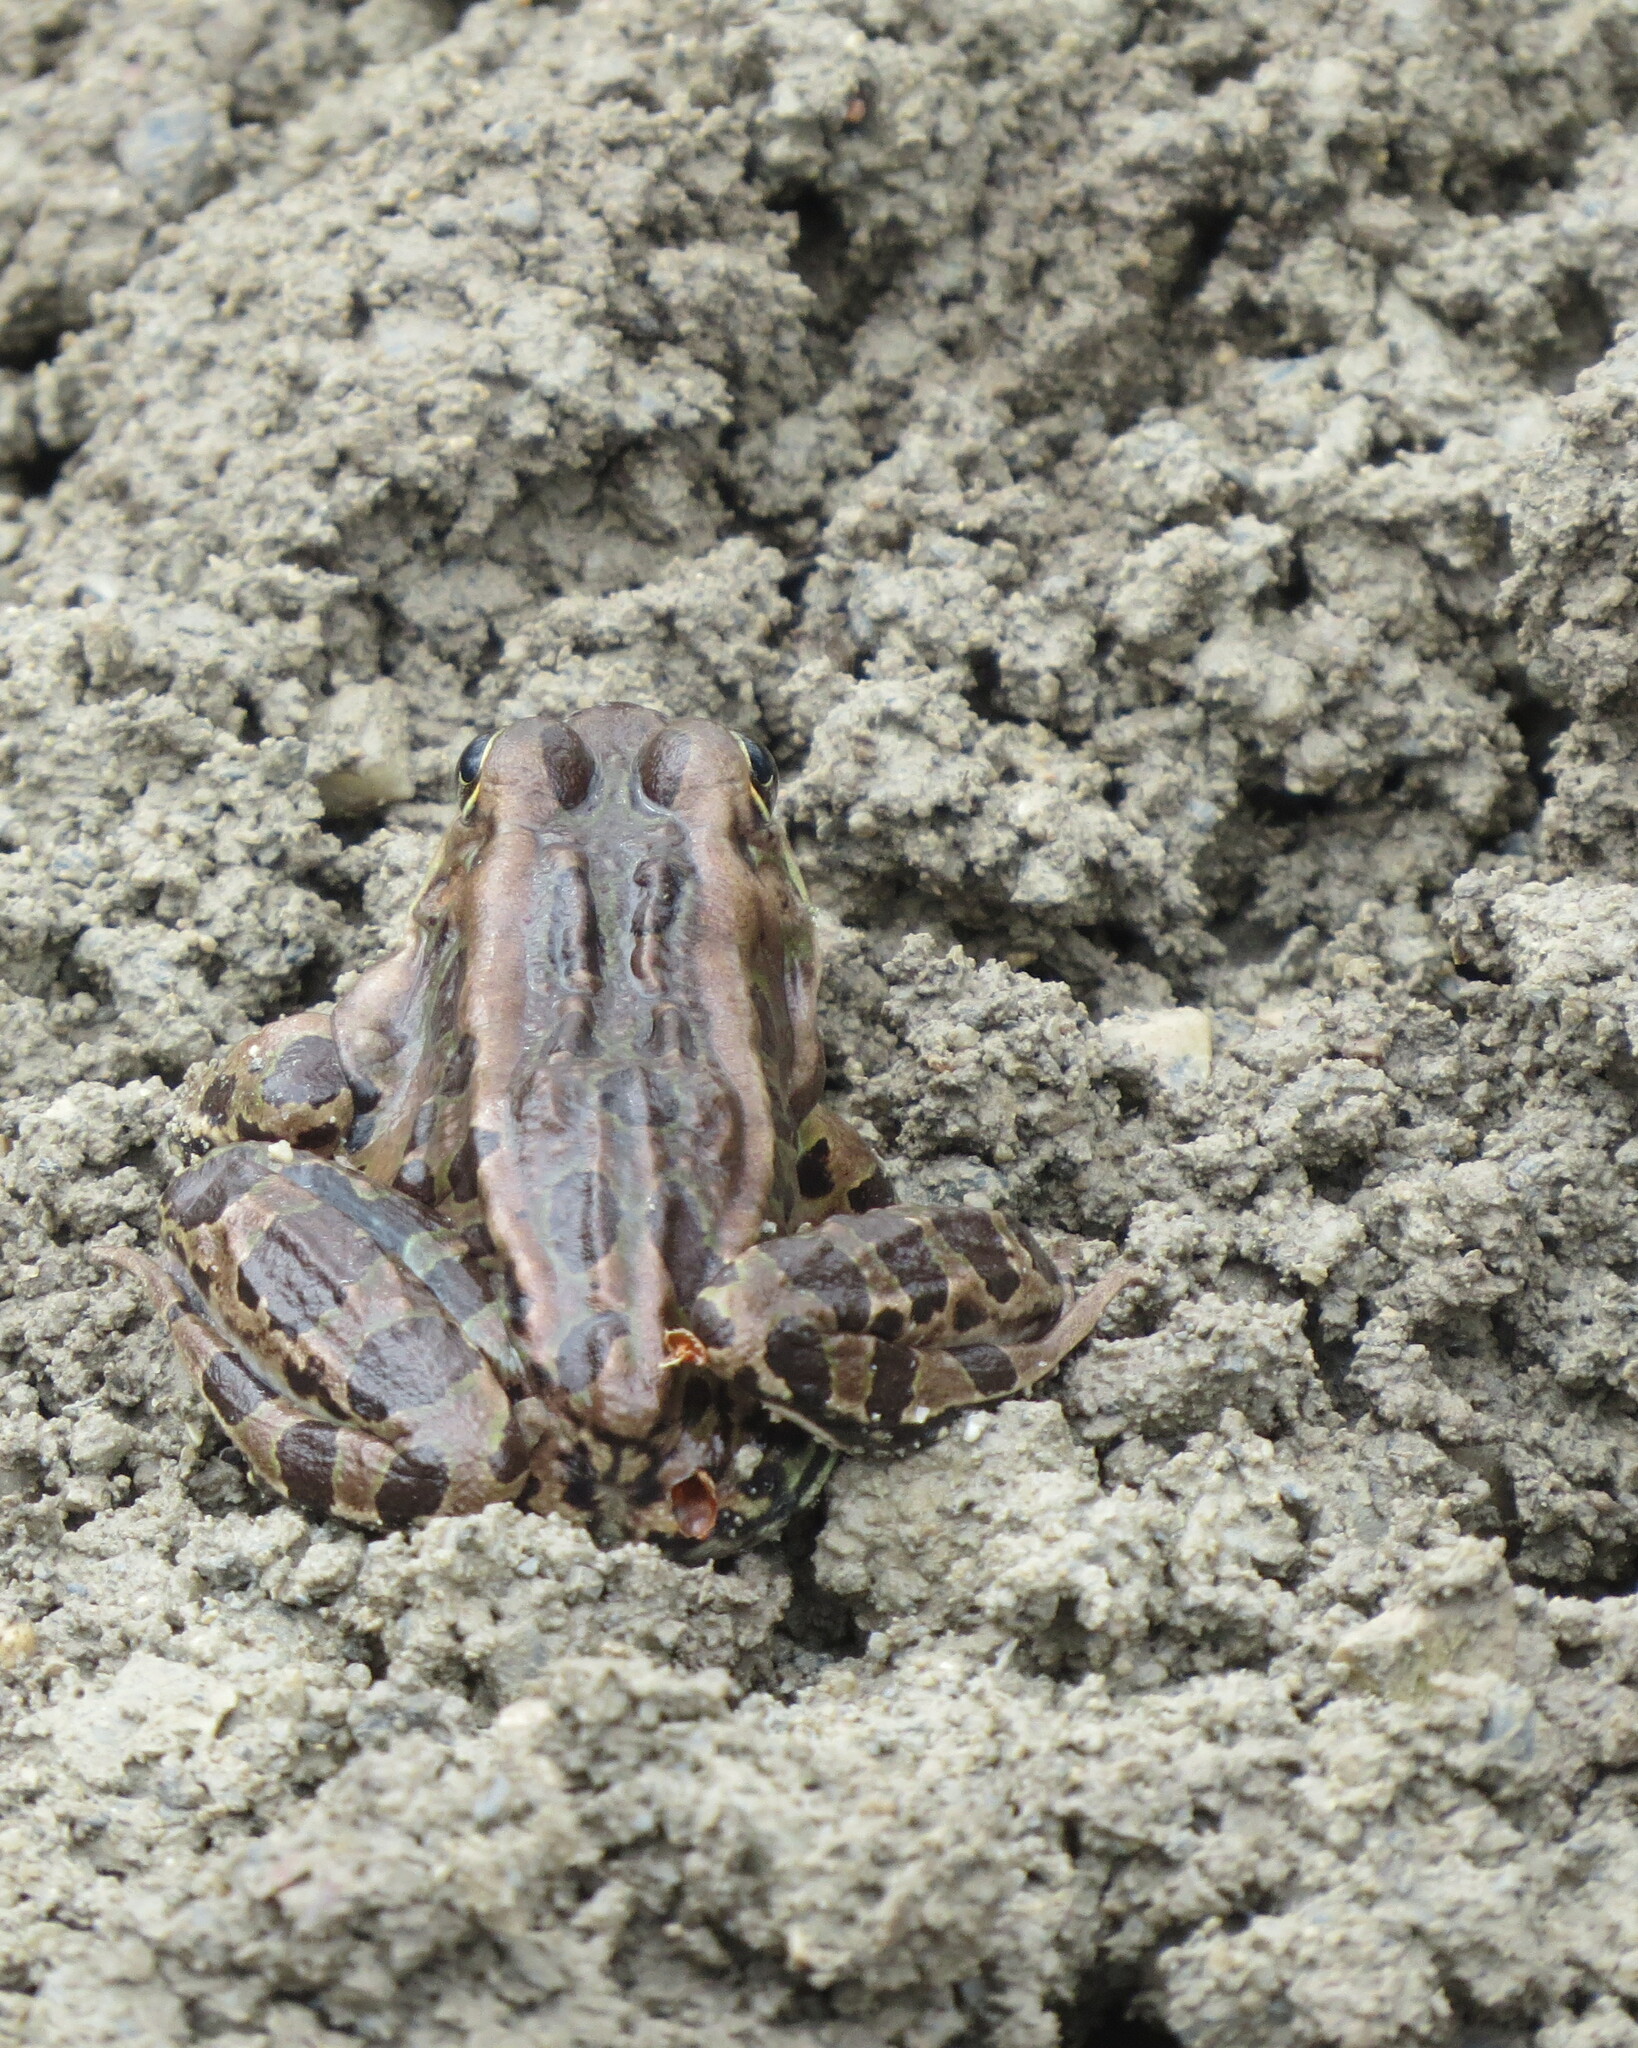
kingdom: Animalia
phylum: Chordata
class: Amphibia
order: Anura
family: Ranidae
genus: Lithobates
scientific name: Lithobates pipiens
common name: Northern leopard frog
